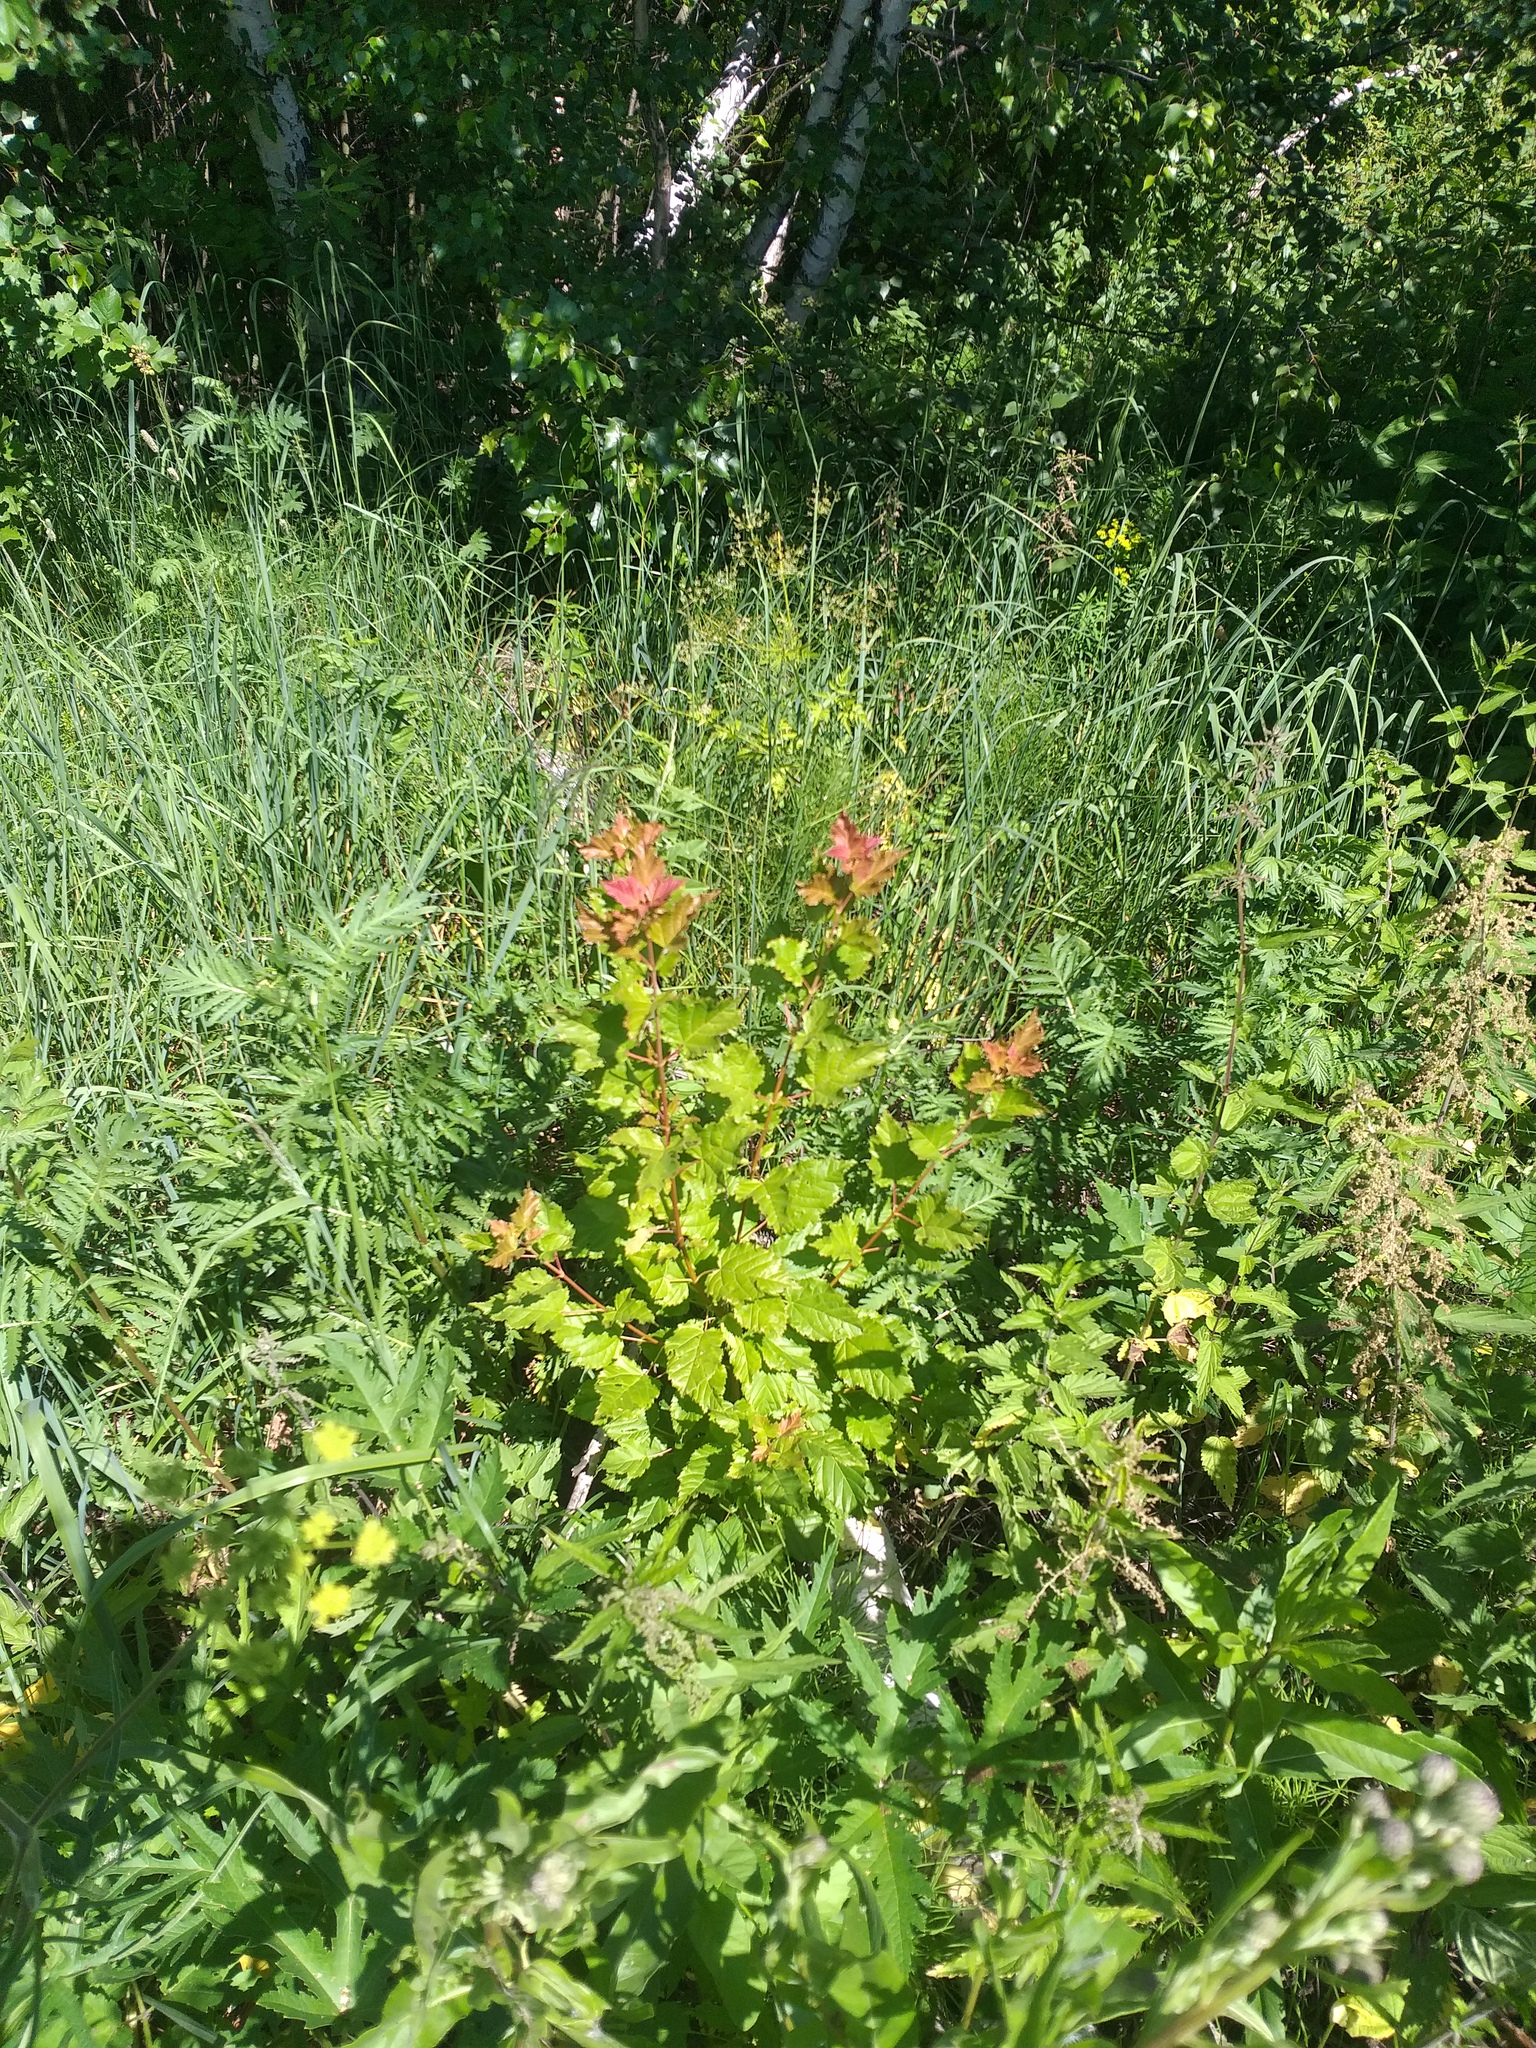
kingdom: Plantae
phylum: Tracheophyta
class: Magnoliopsida
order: Sapindales
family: Sapindaceae
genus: Acer
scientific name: Acer tataricum
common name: Tartar maple
